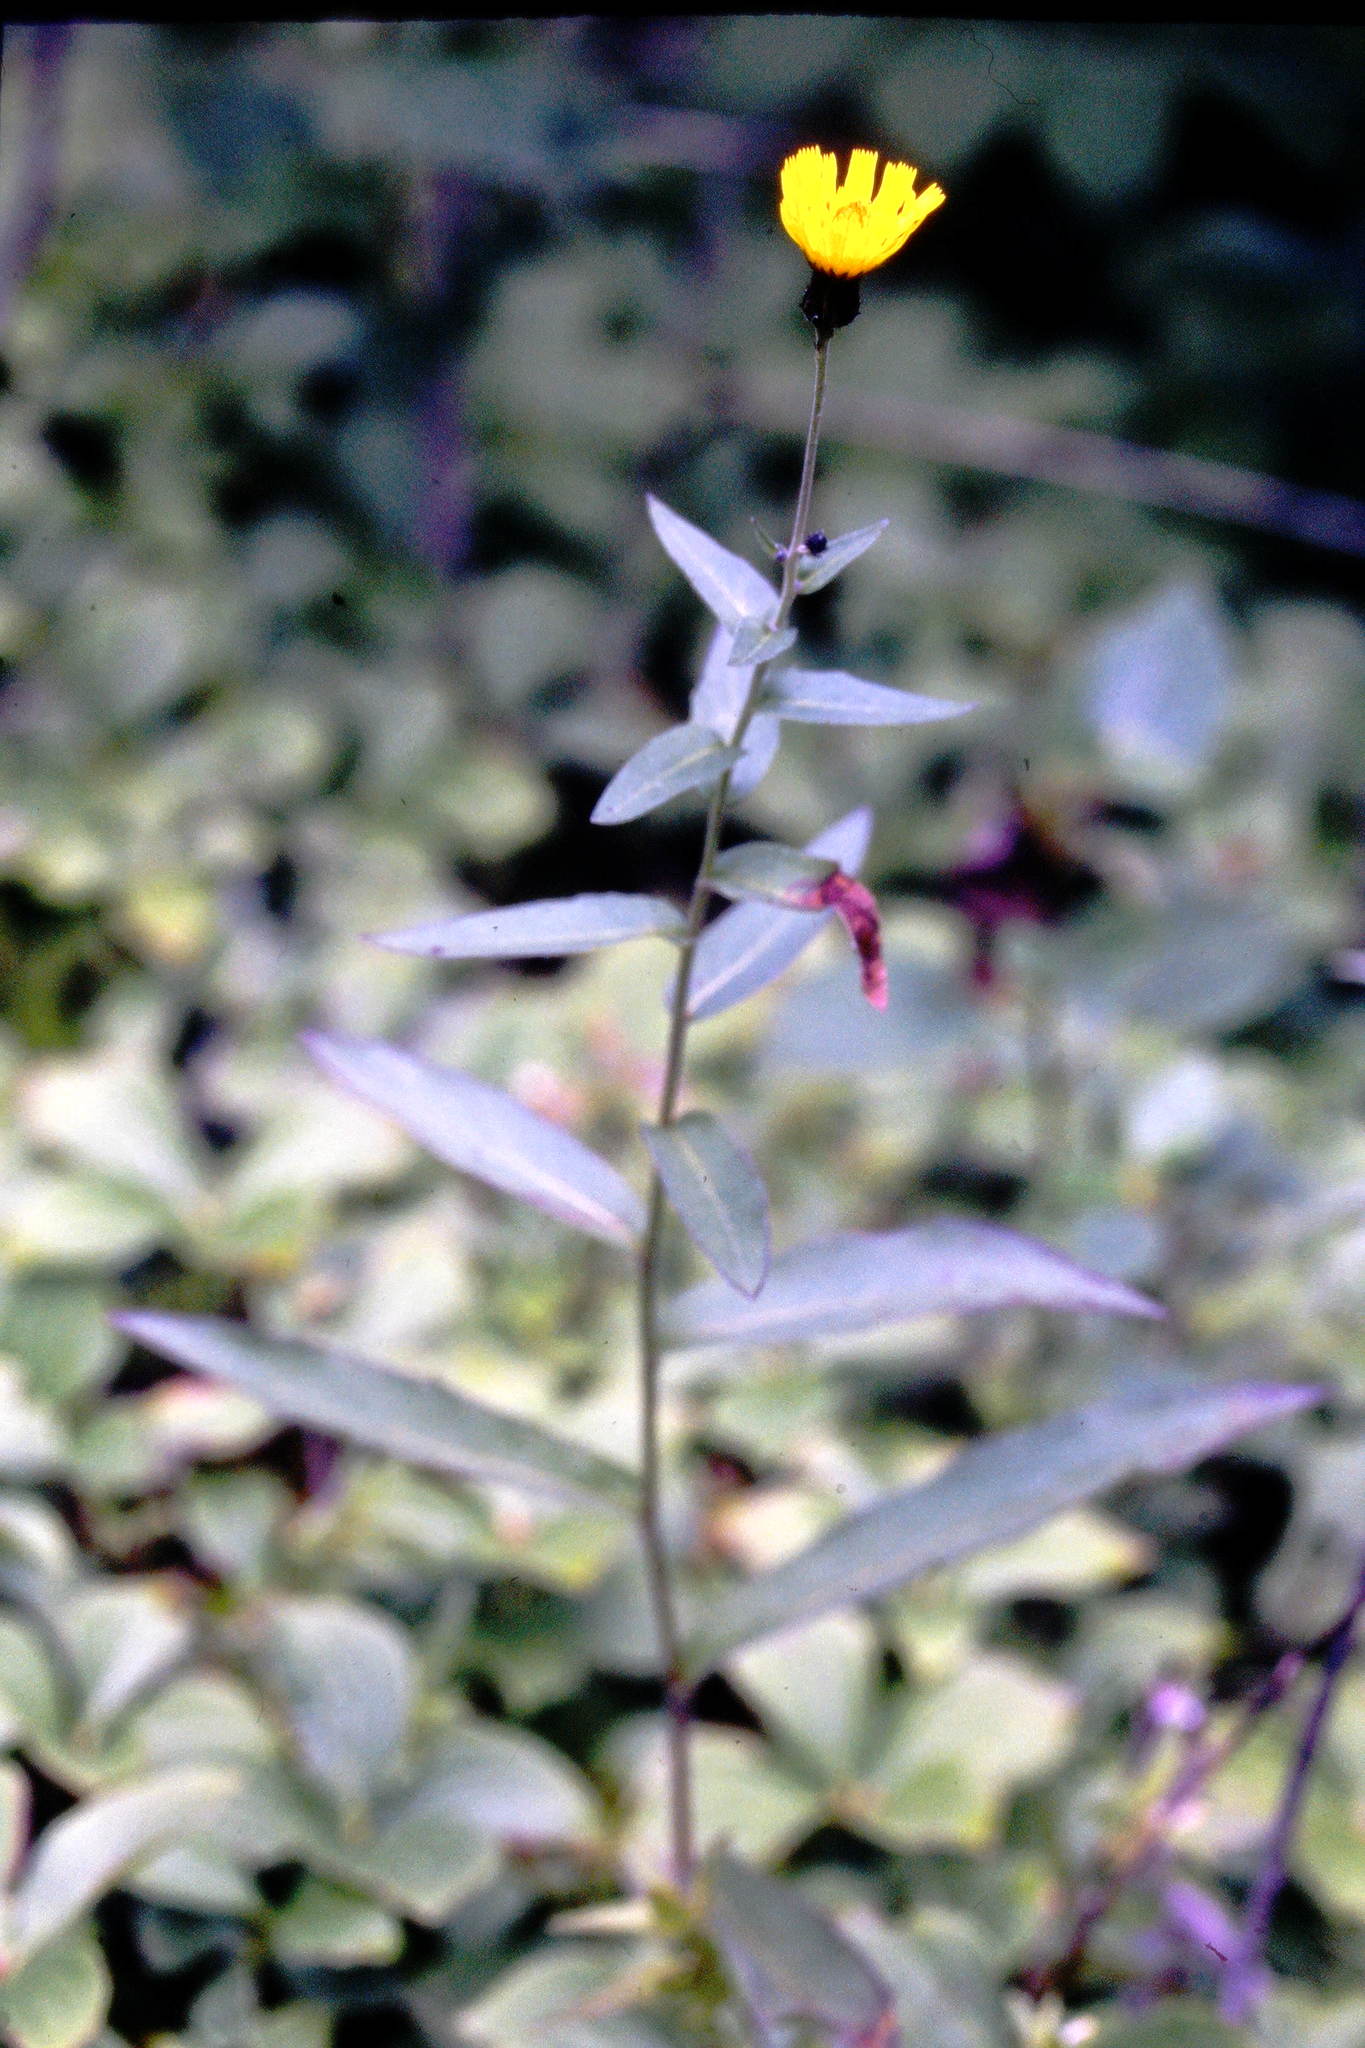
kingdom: Plantae
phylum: Tracheophyta
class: Magnoliopsida
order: Asterales
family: Asteraceae
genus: Hieracium
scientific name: Hieracium umbellatum
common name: Northern hawkweed
